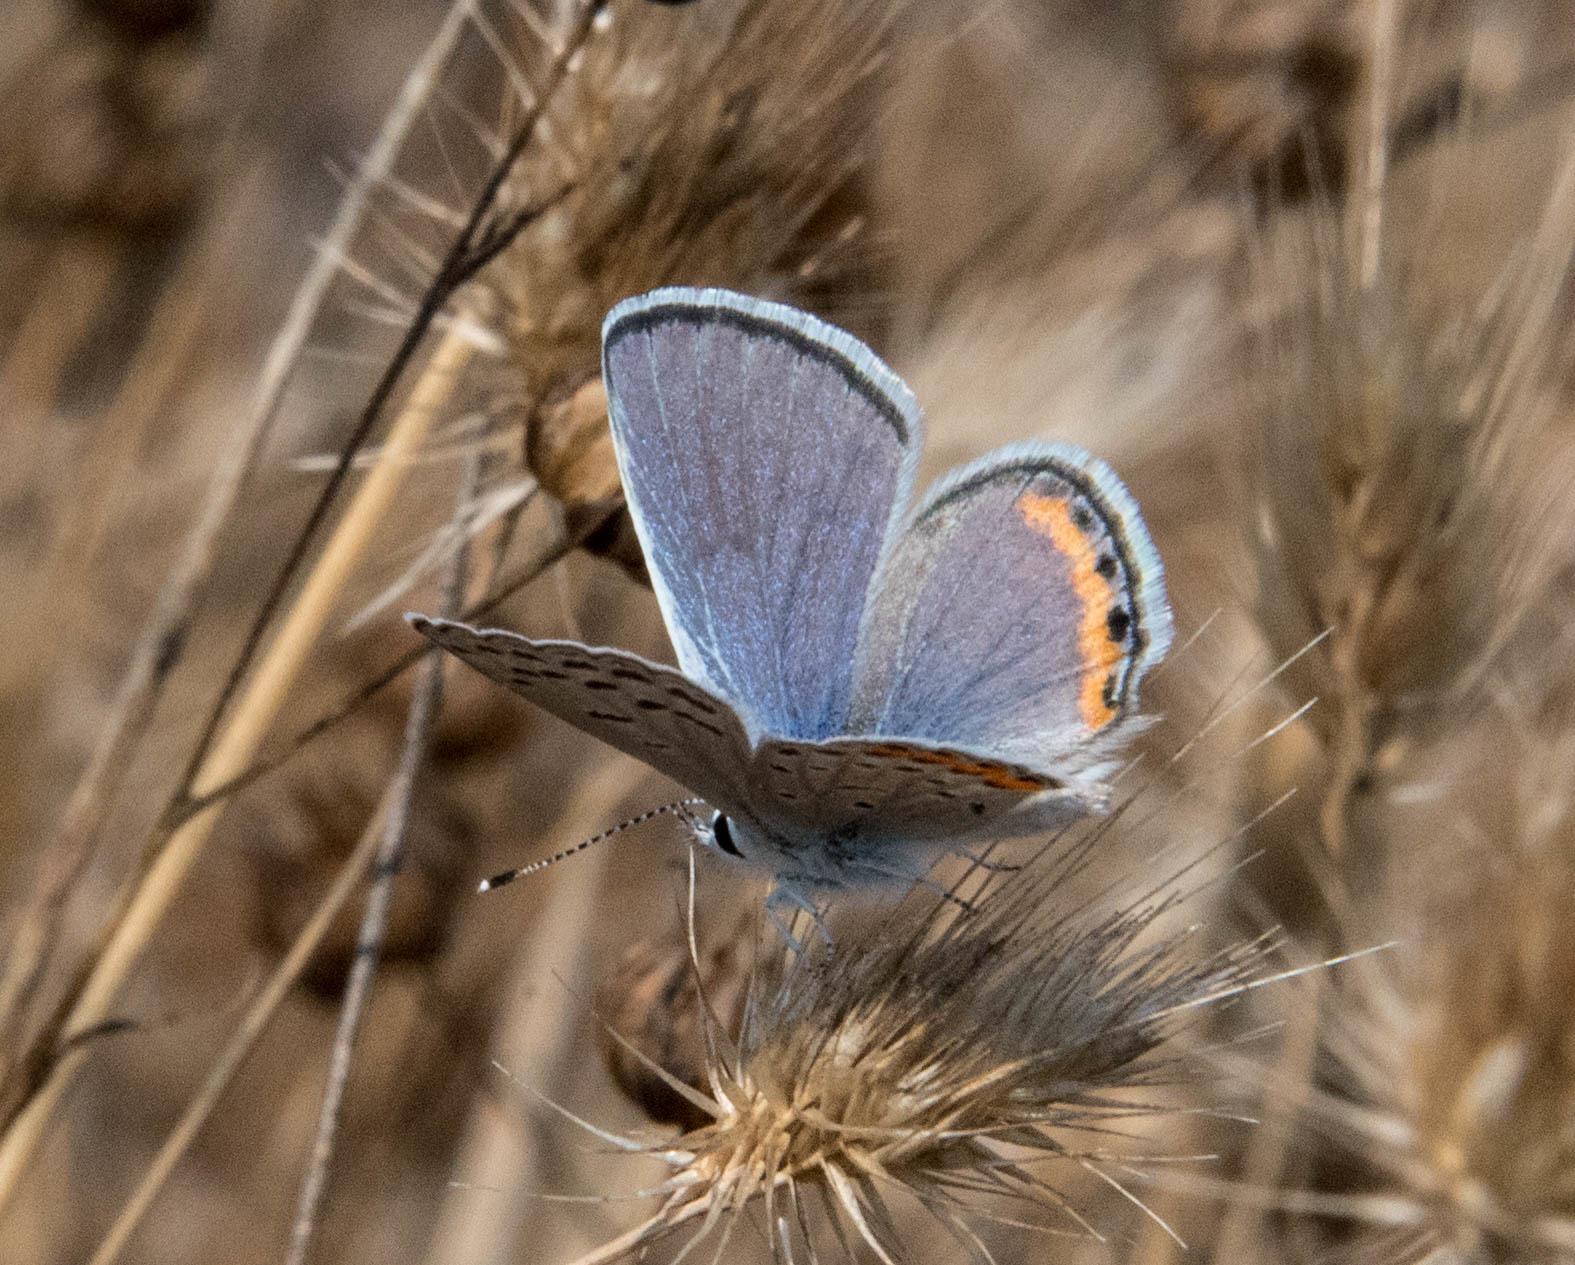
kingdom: Animalia
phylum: Arthropoda
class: Insecta
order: Lepidoptera
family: Lycaenidae
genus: Icaricia
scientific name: Icaricia acmon
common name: Acmon blue
